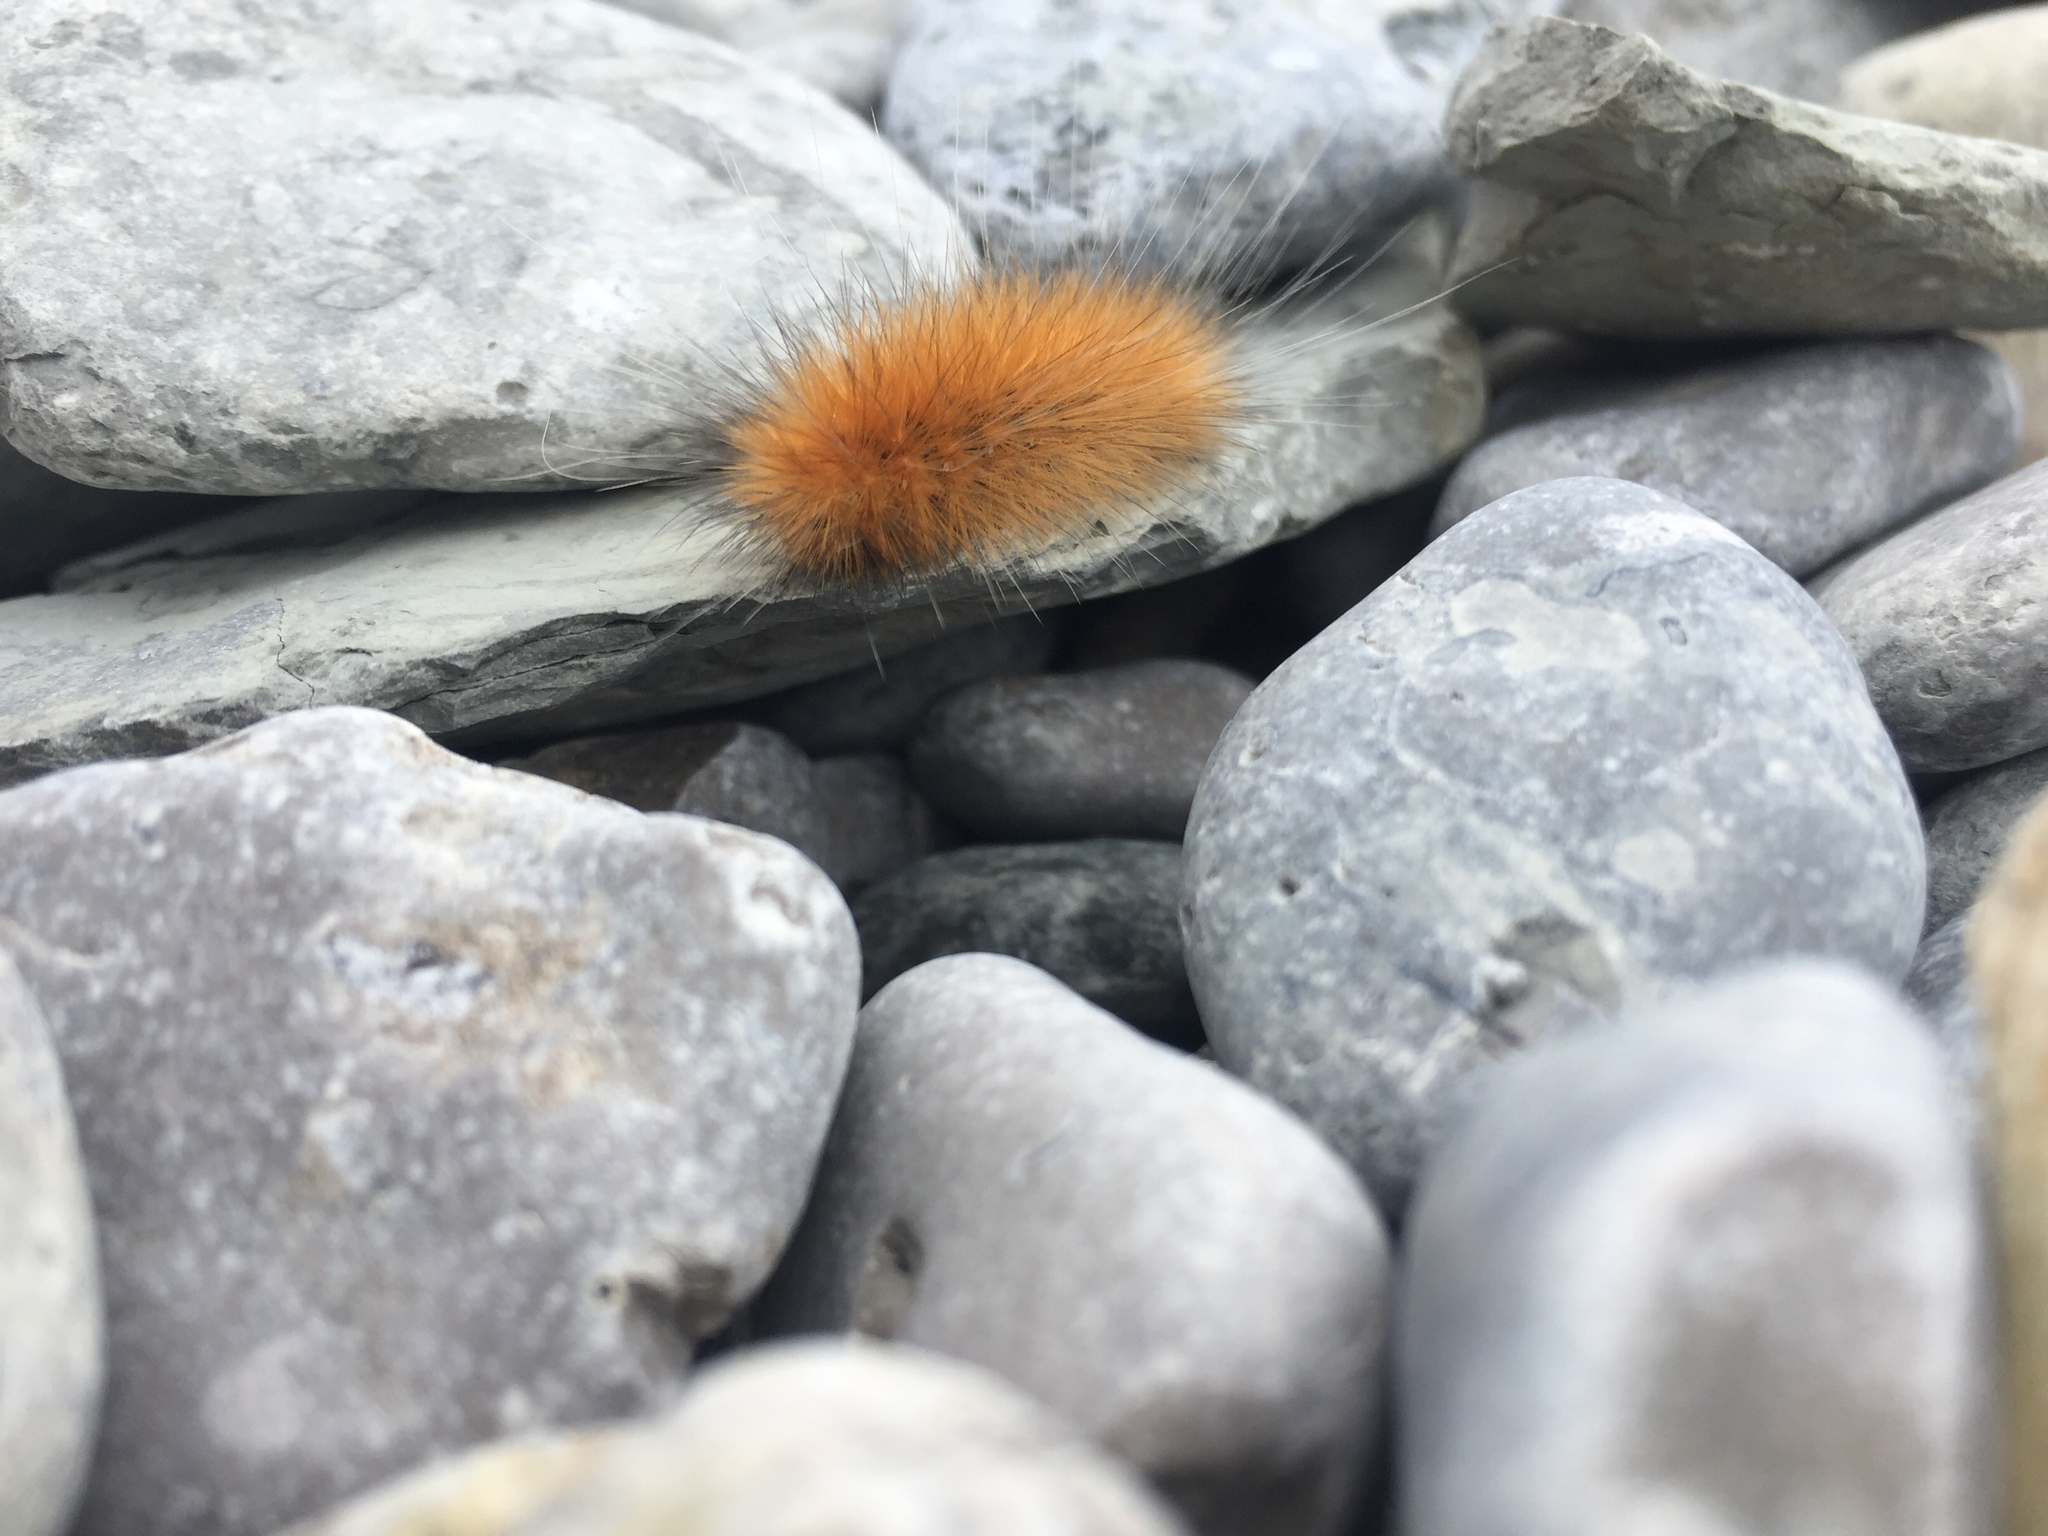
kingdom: Animalia
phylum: Arthropoda
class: Insecta
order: Lepidoptera
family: Erebidae
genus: Spilosoma
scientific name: Spilosoma virginica
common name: Virginia tiger moth
